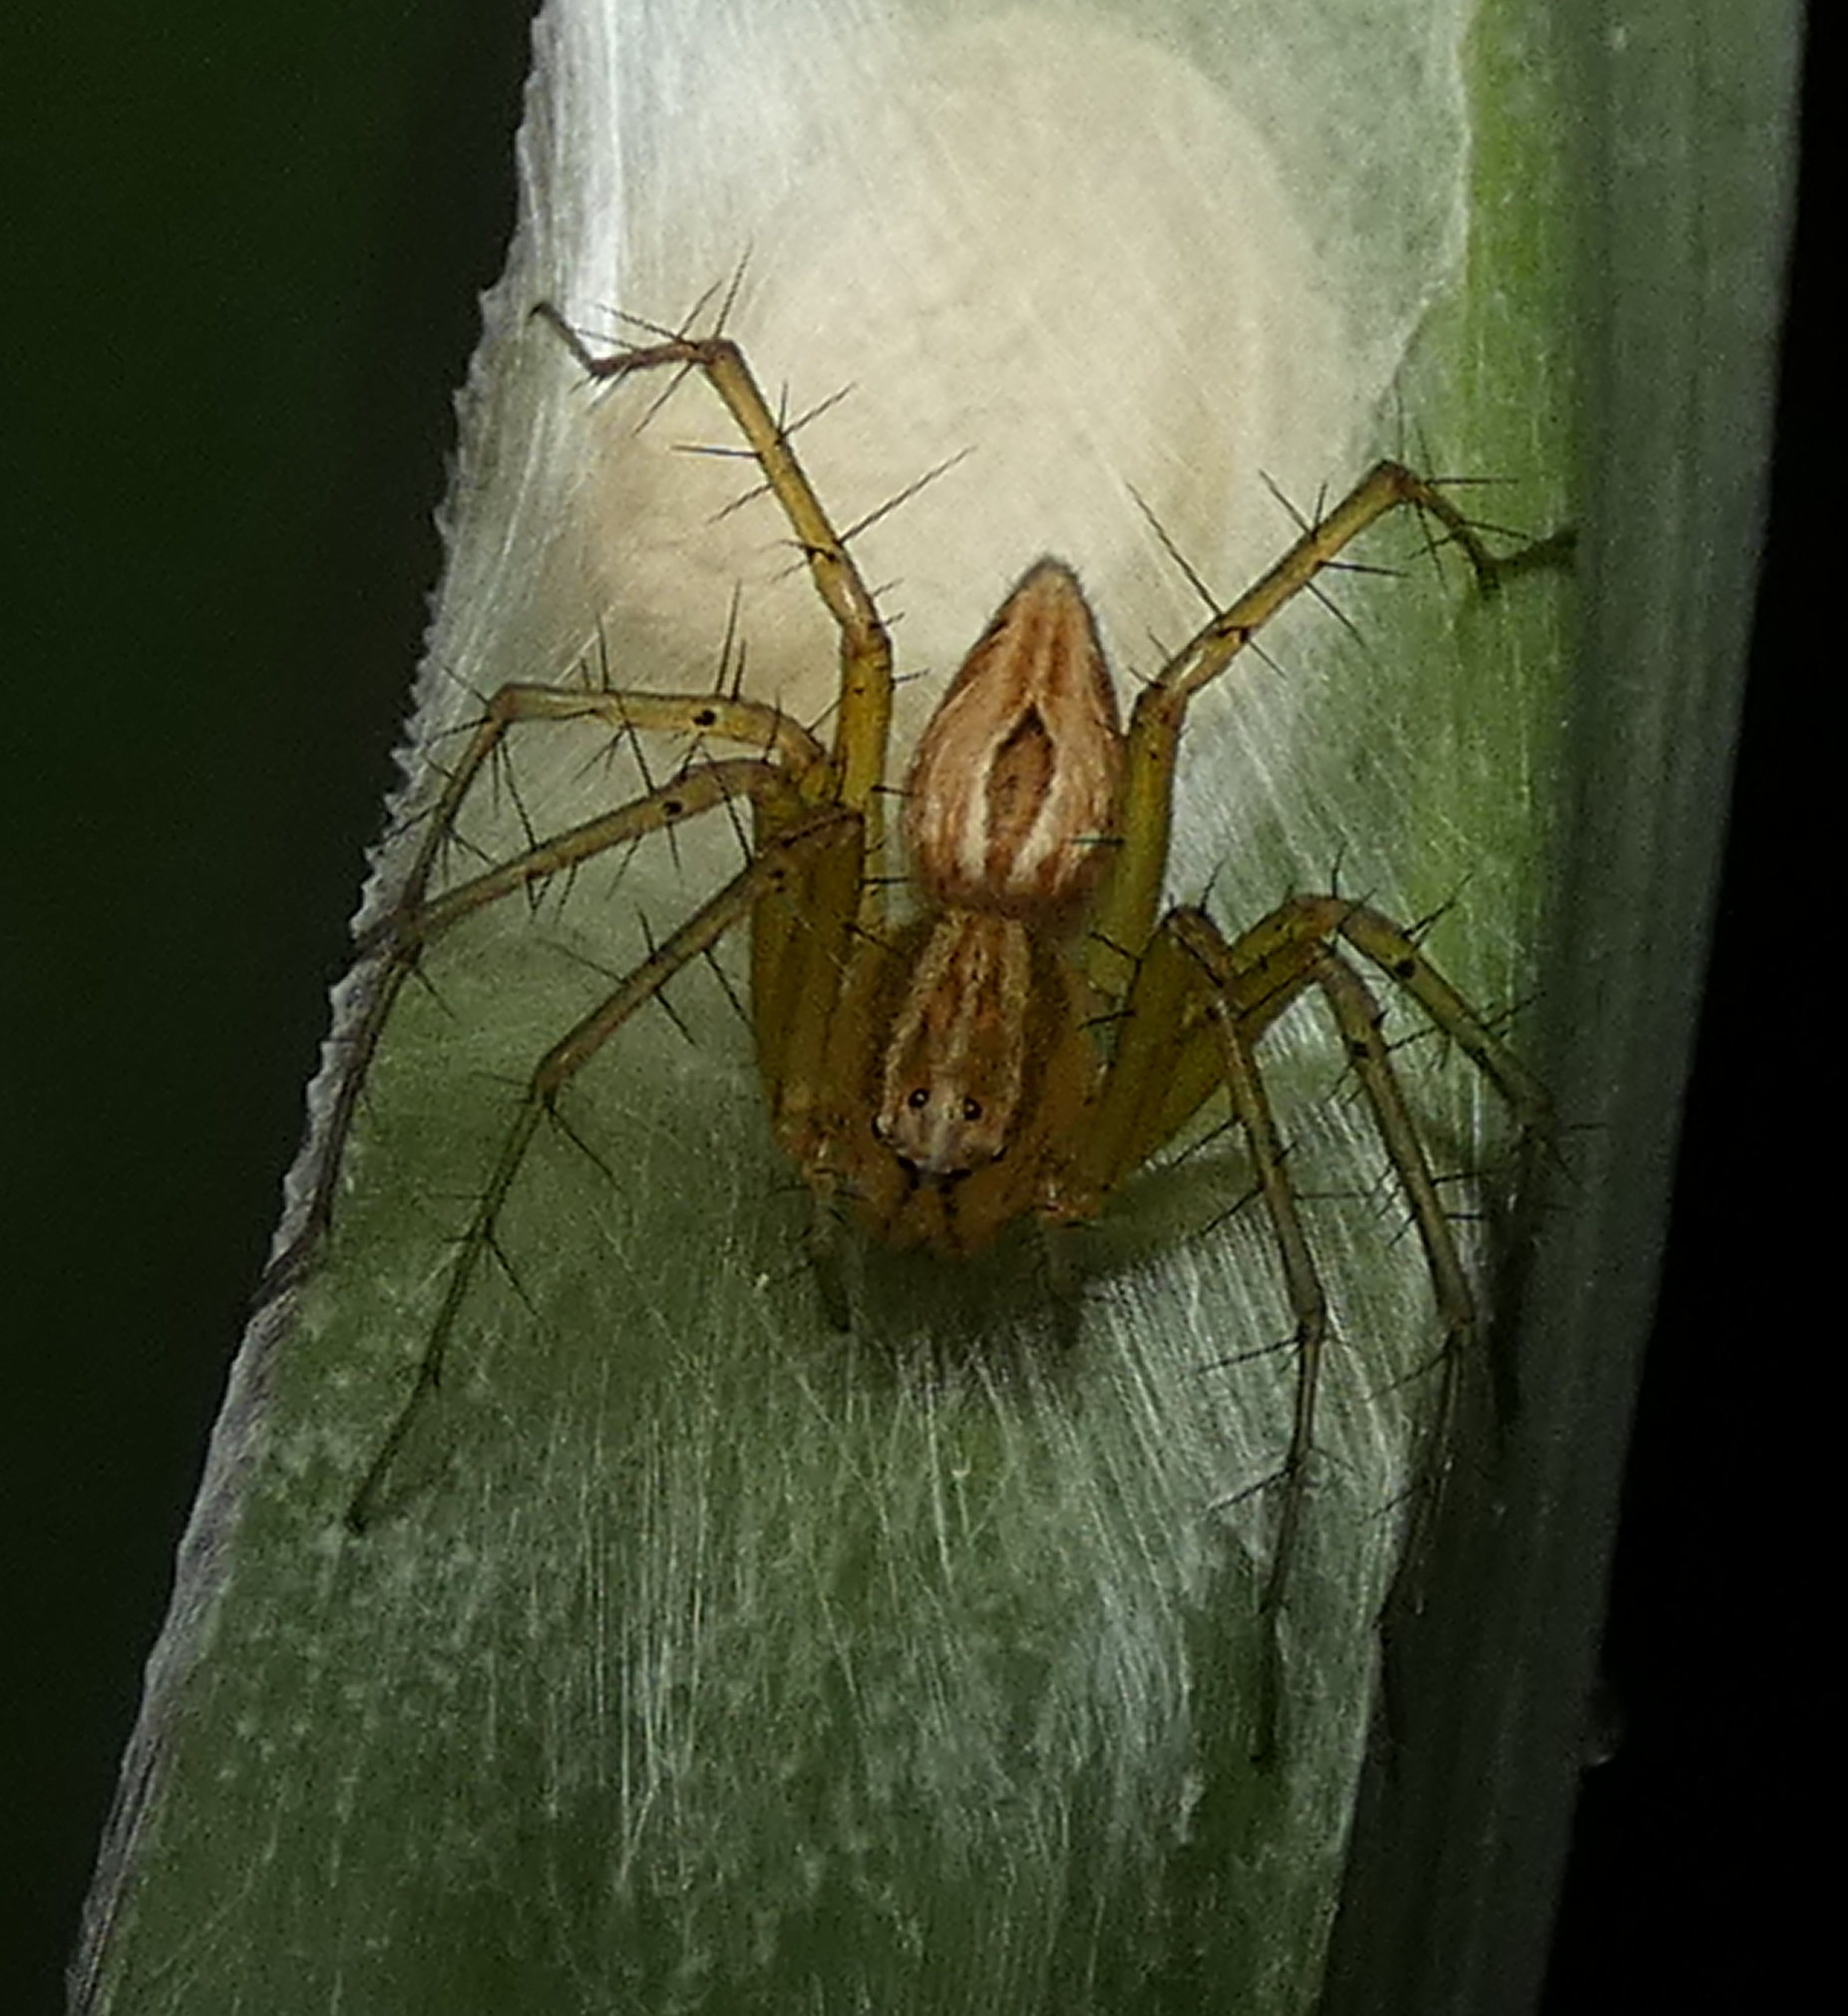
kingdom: Animalia
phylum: Arthropoda
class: Arachnida
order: Araneae
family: Oxyopidae
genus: Oxyopes
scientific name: Oxyopes salticus
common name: Lynx spiders
